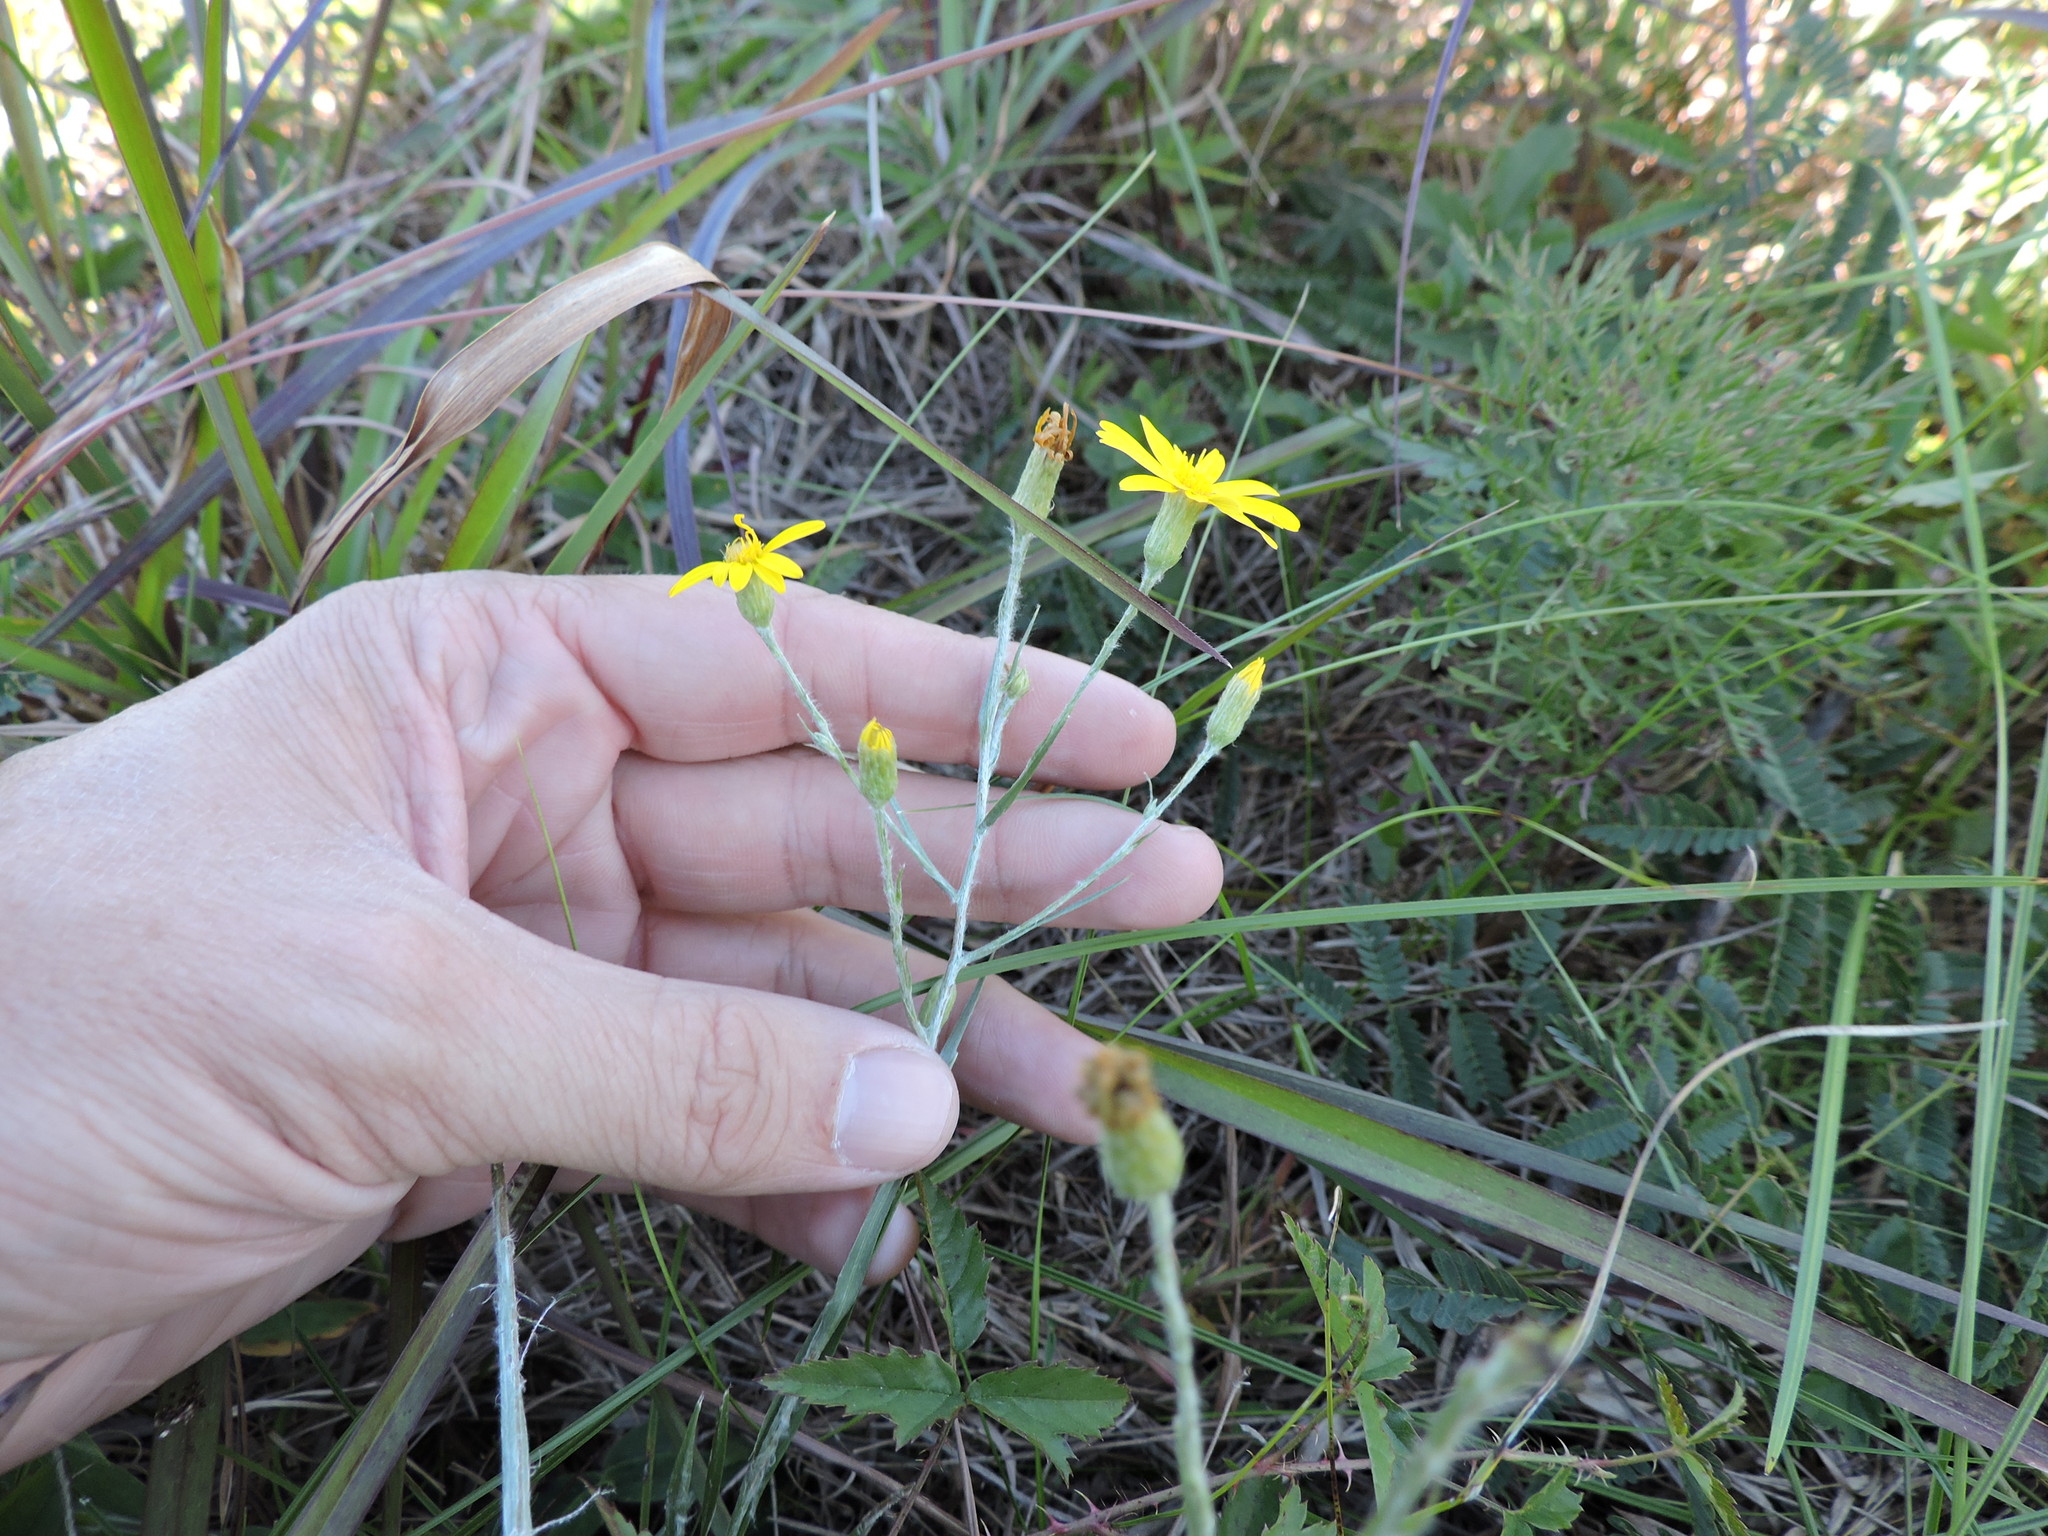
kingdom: Plantae
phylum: Tracheophyta
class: Magnoliopsida
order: Asterales
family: Asteraceae
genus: Pityopsis
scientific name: Pityopsis graminifolia
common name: Grass-leaf golden-aster
